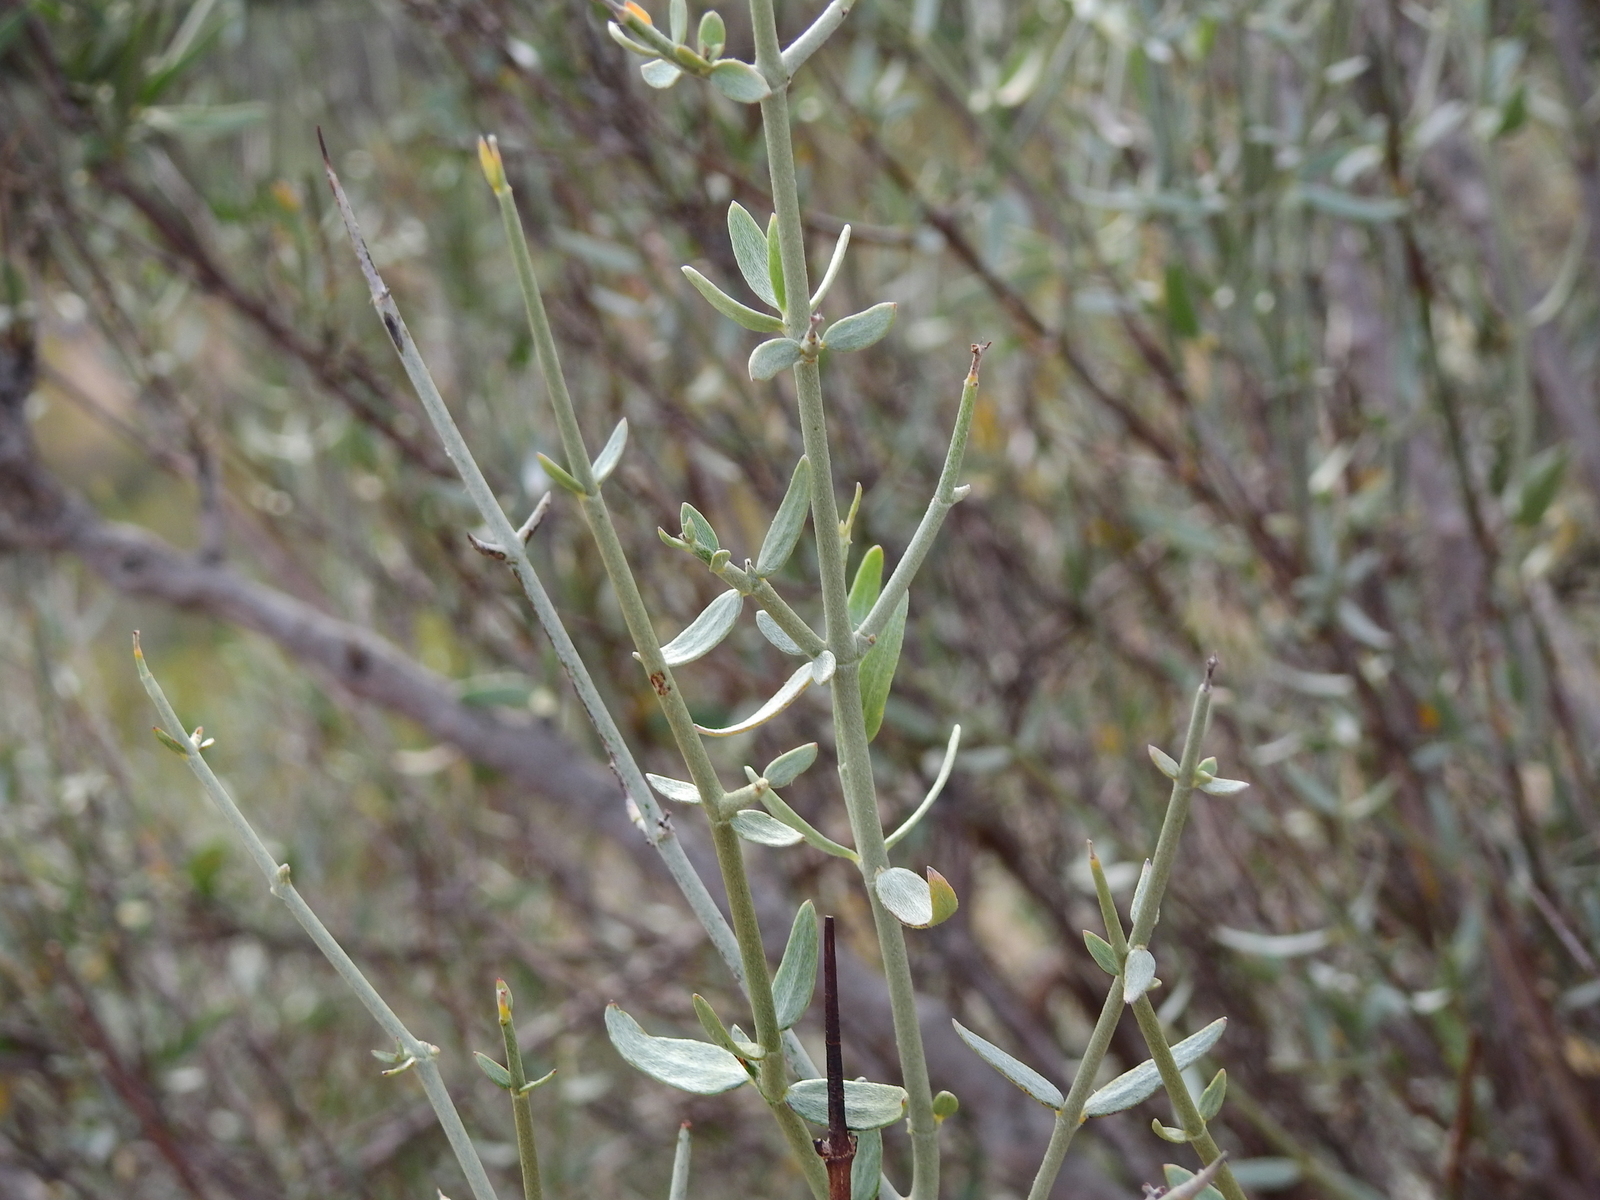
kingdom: Plantae
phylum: Tracheophyta
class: Magnoliopsida
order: Malpighiales
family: Malpighiaceae
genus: Tricomaria
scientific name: Tricomaria usillo
